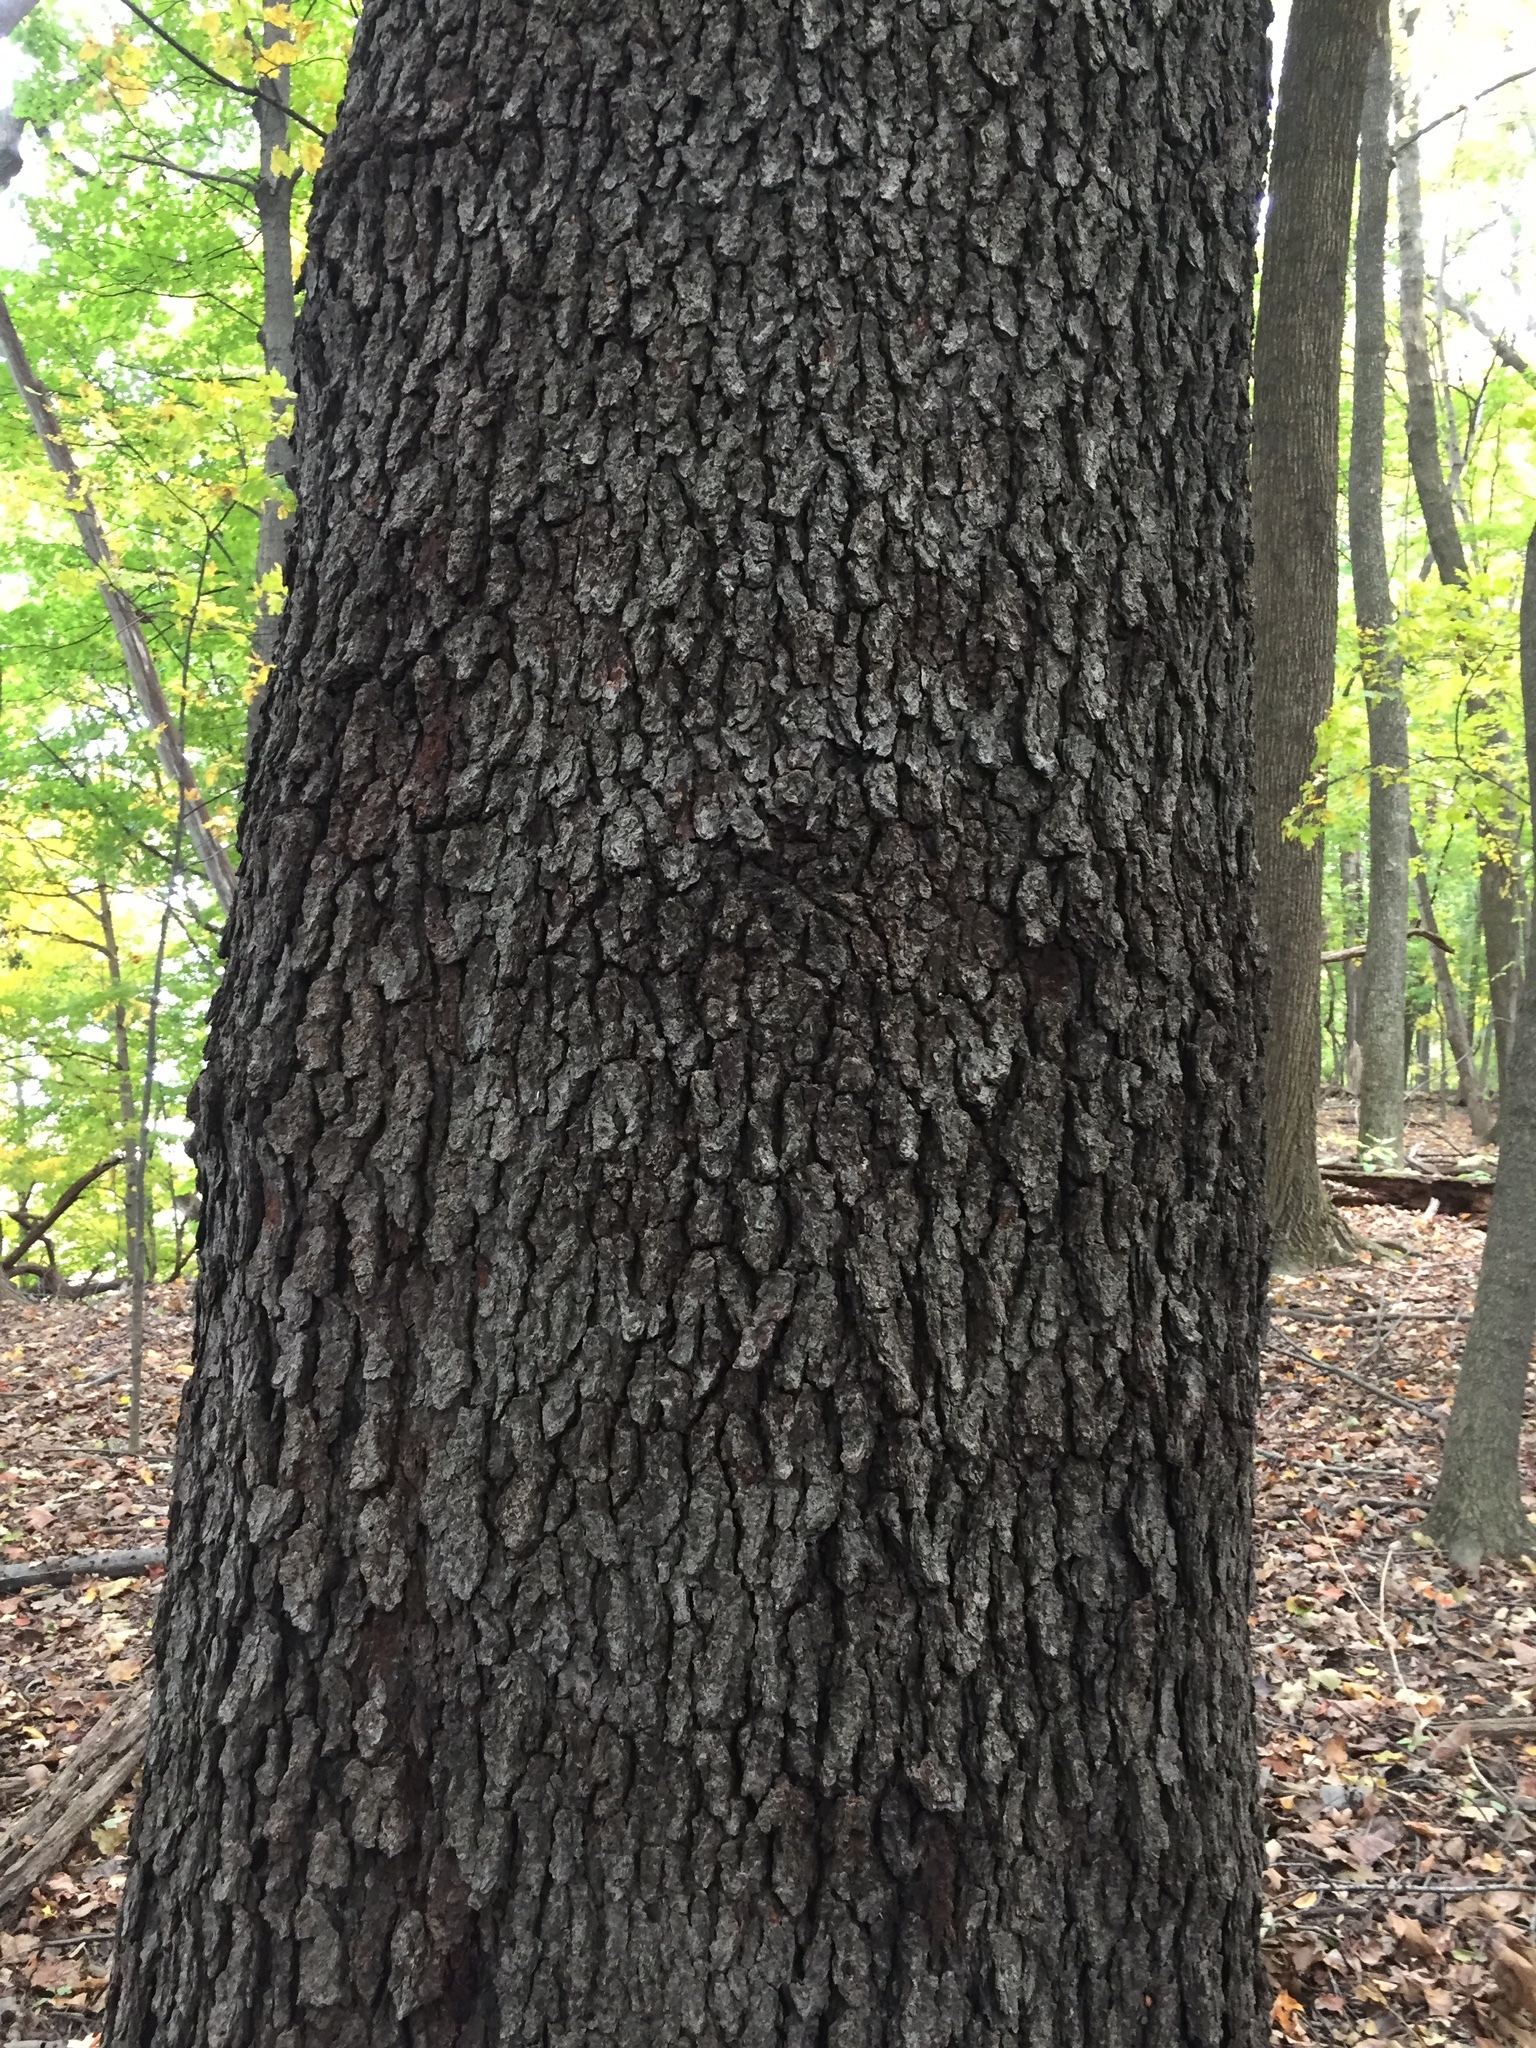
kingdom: Plantae
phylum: Tracheophyta
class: Magnoliopsida
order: Rosales
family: Rosaceae
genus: Prunus
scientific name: Prunus serotina
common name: Black cherry
